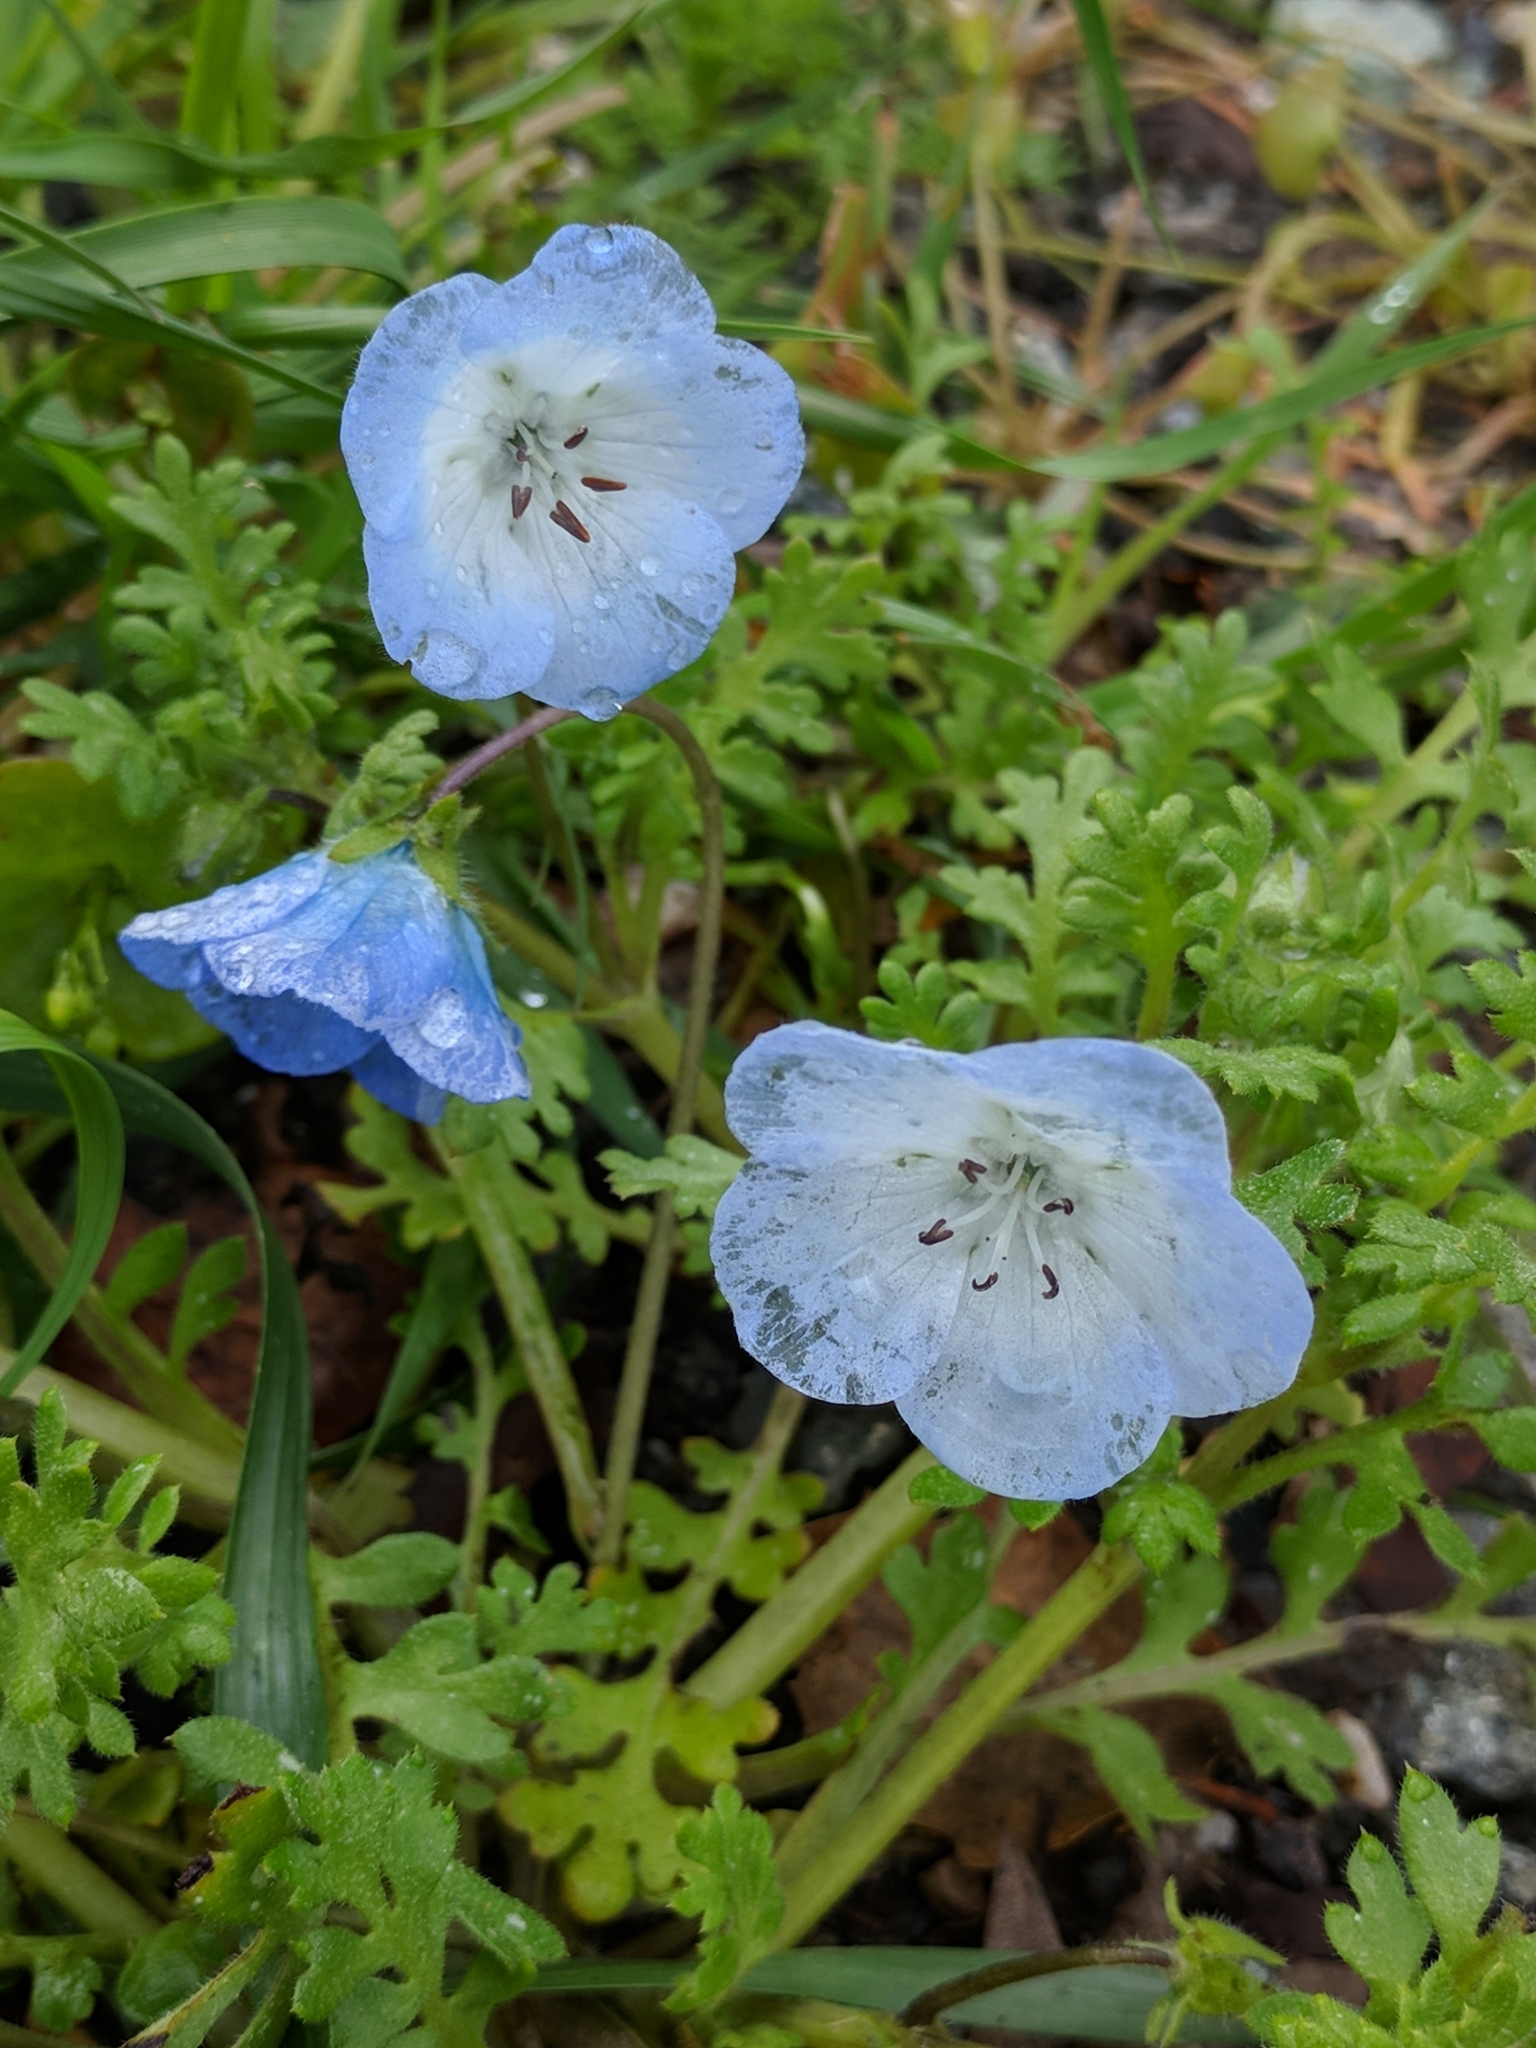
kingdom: Plantae
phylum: Tracheophyta
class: Magnoliopsida
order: Boraginales
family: Hydrophyllaceae
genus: Nemophila
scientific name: Nemophila menziesii
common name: Baby's-blue-eyes
